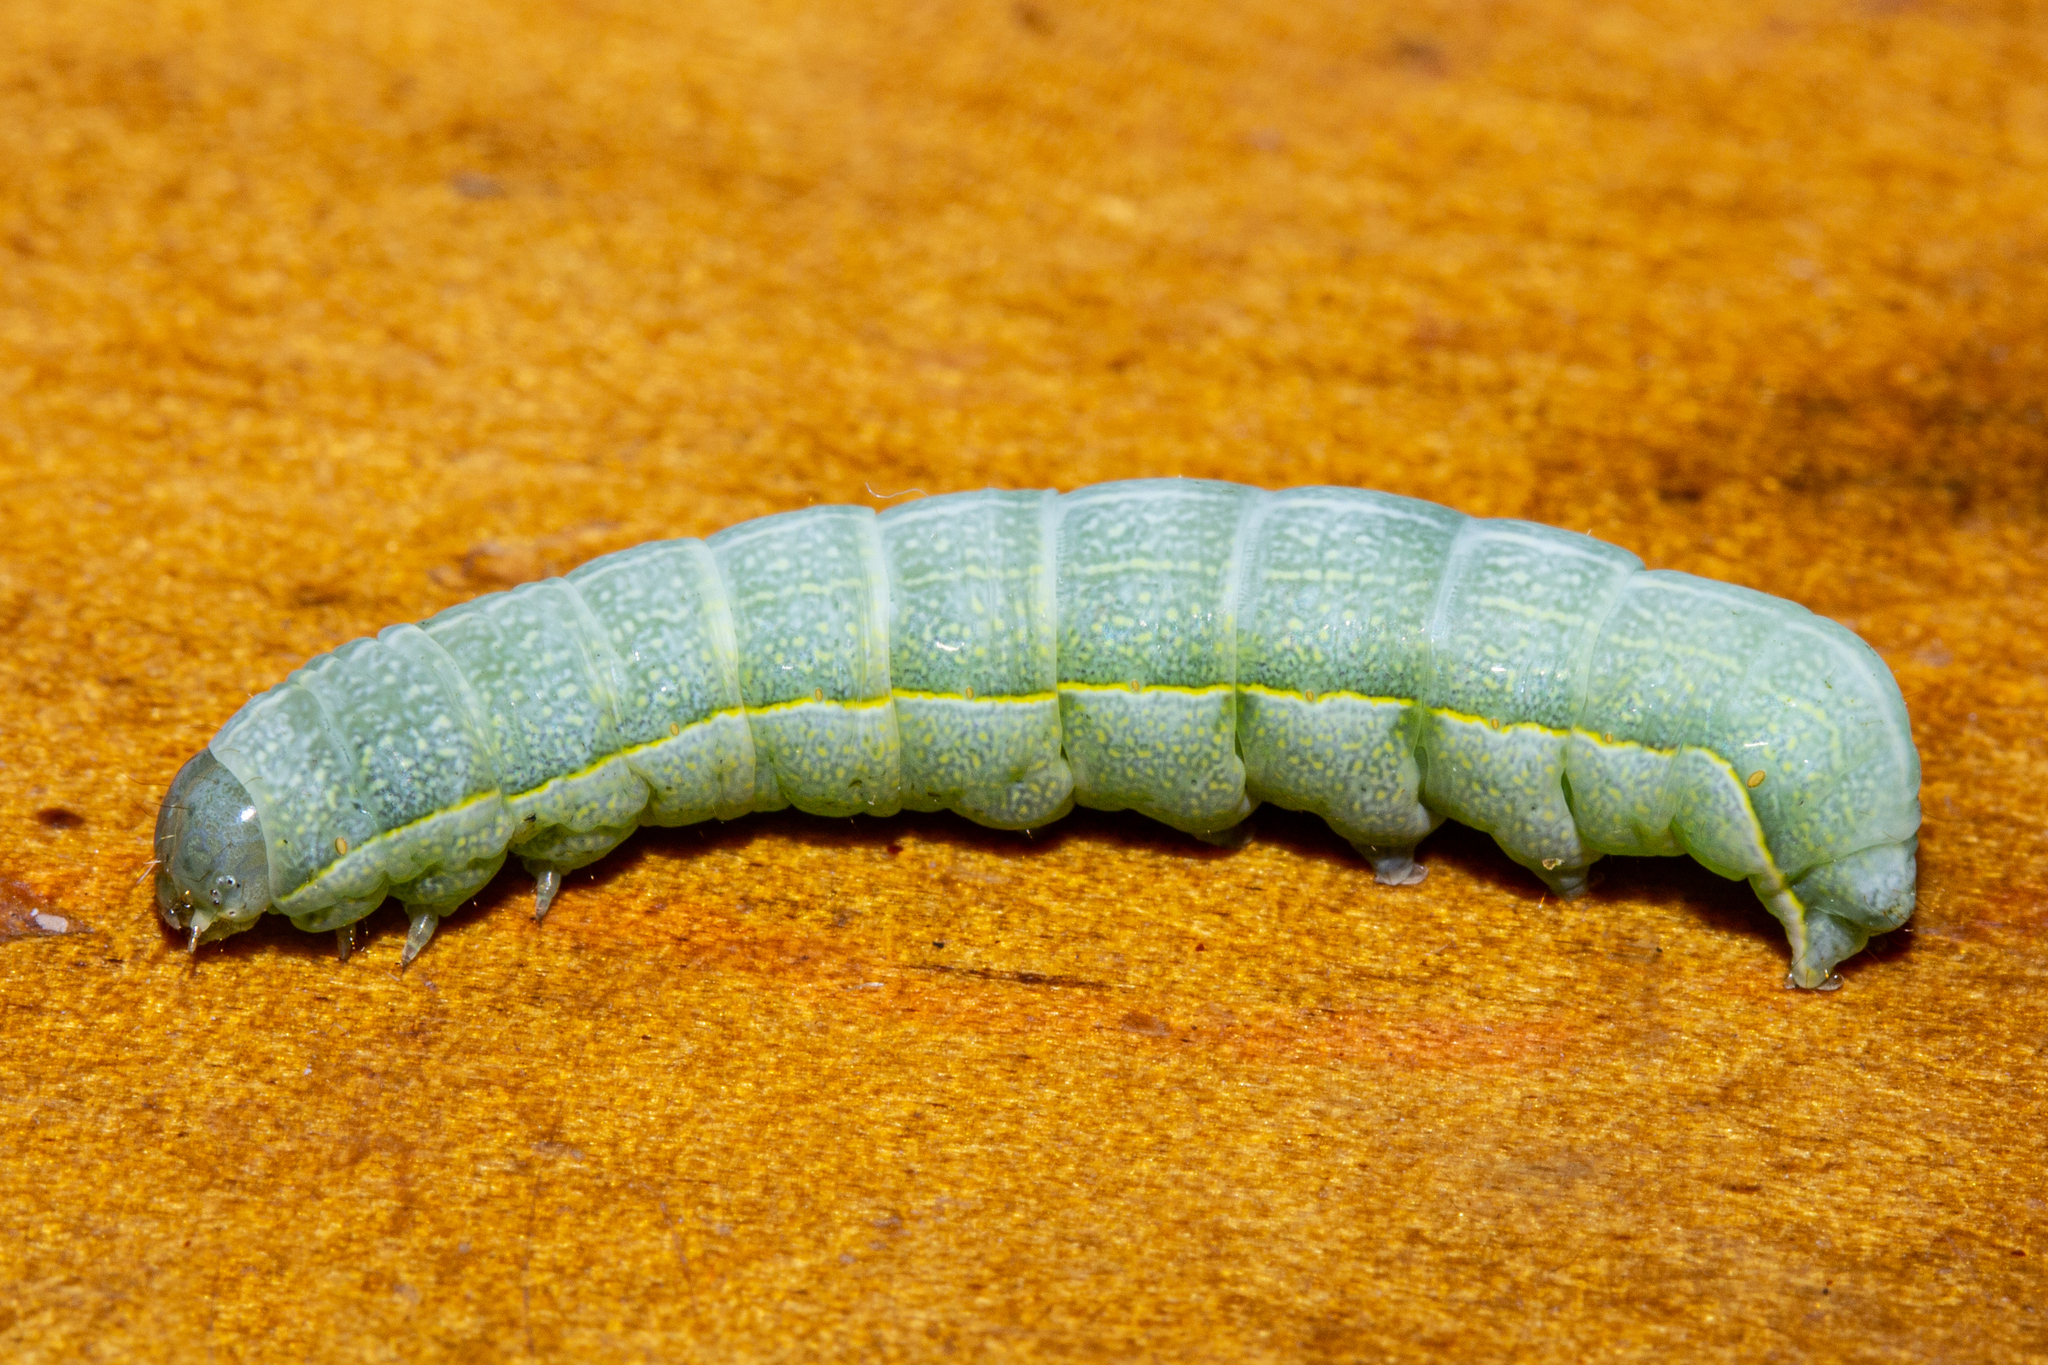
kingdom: Animalia
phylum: Arthropoda
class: Insecta
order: Lepidoptera
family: Noctuidae
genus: Meterana
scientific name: Meterana decorata
